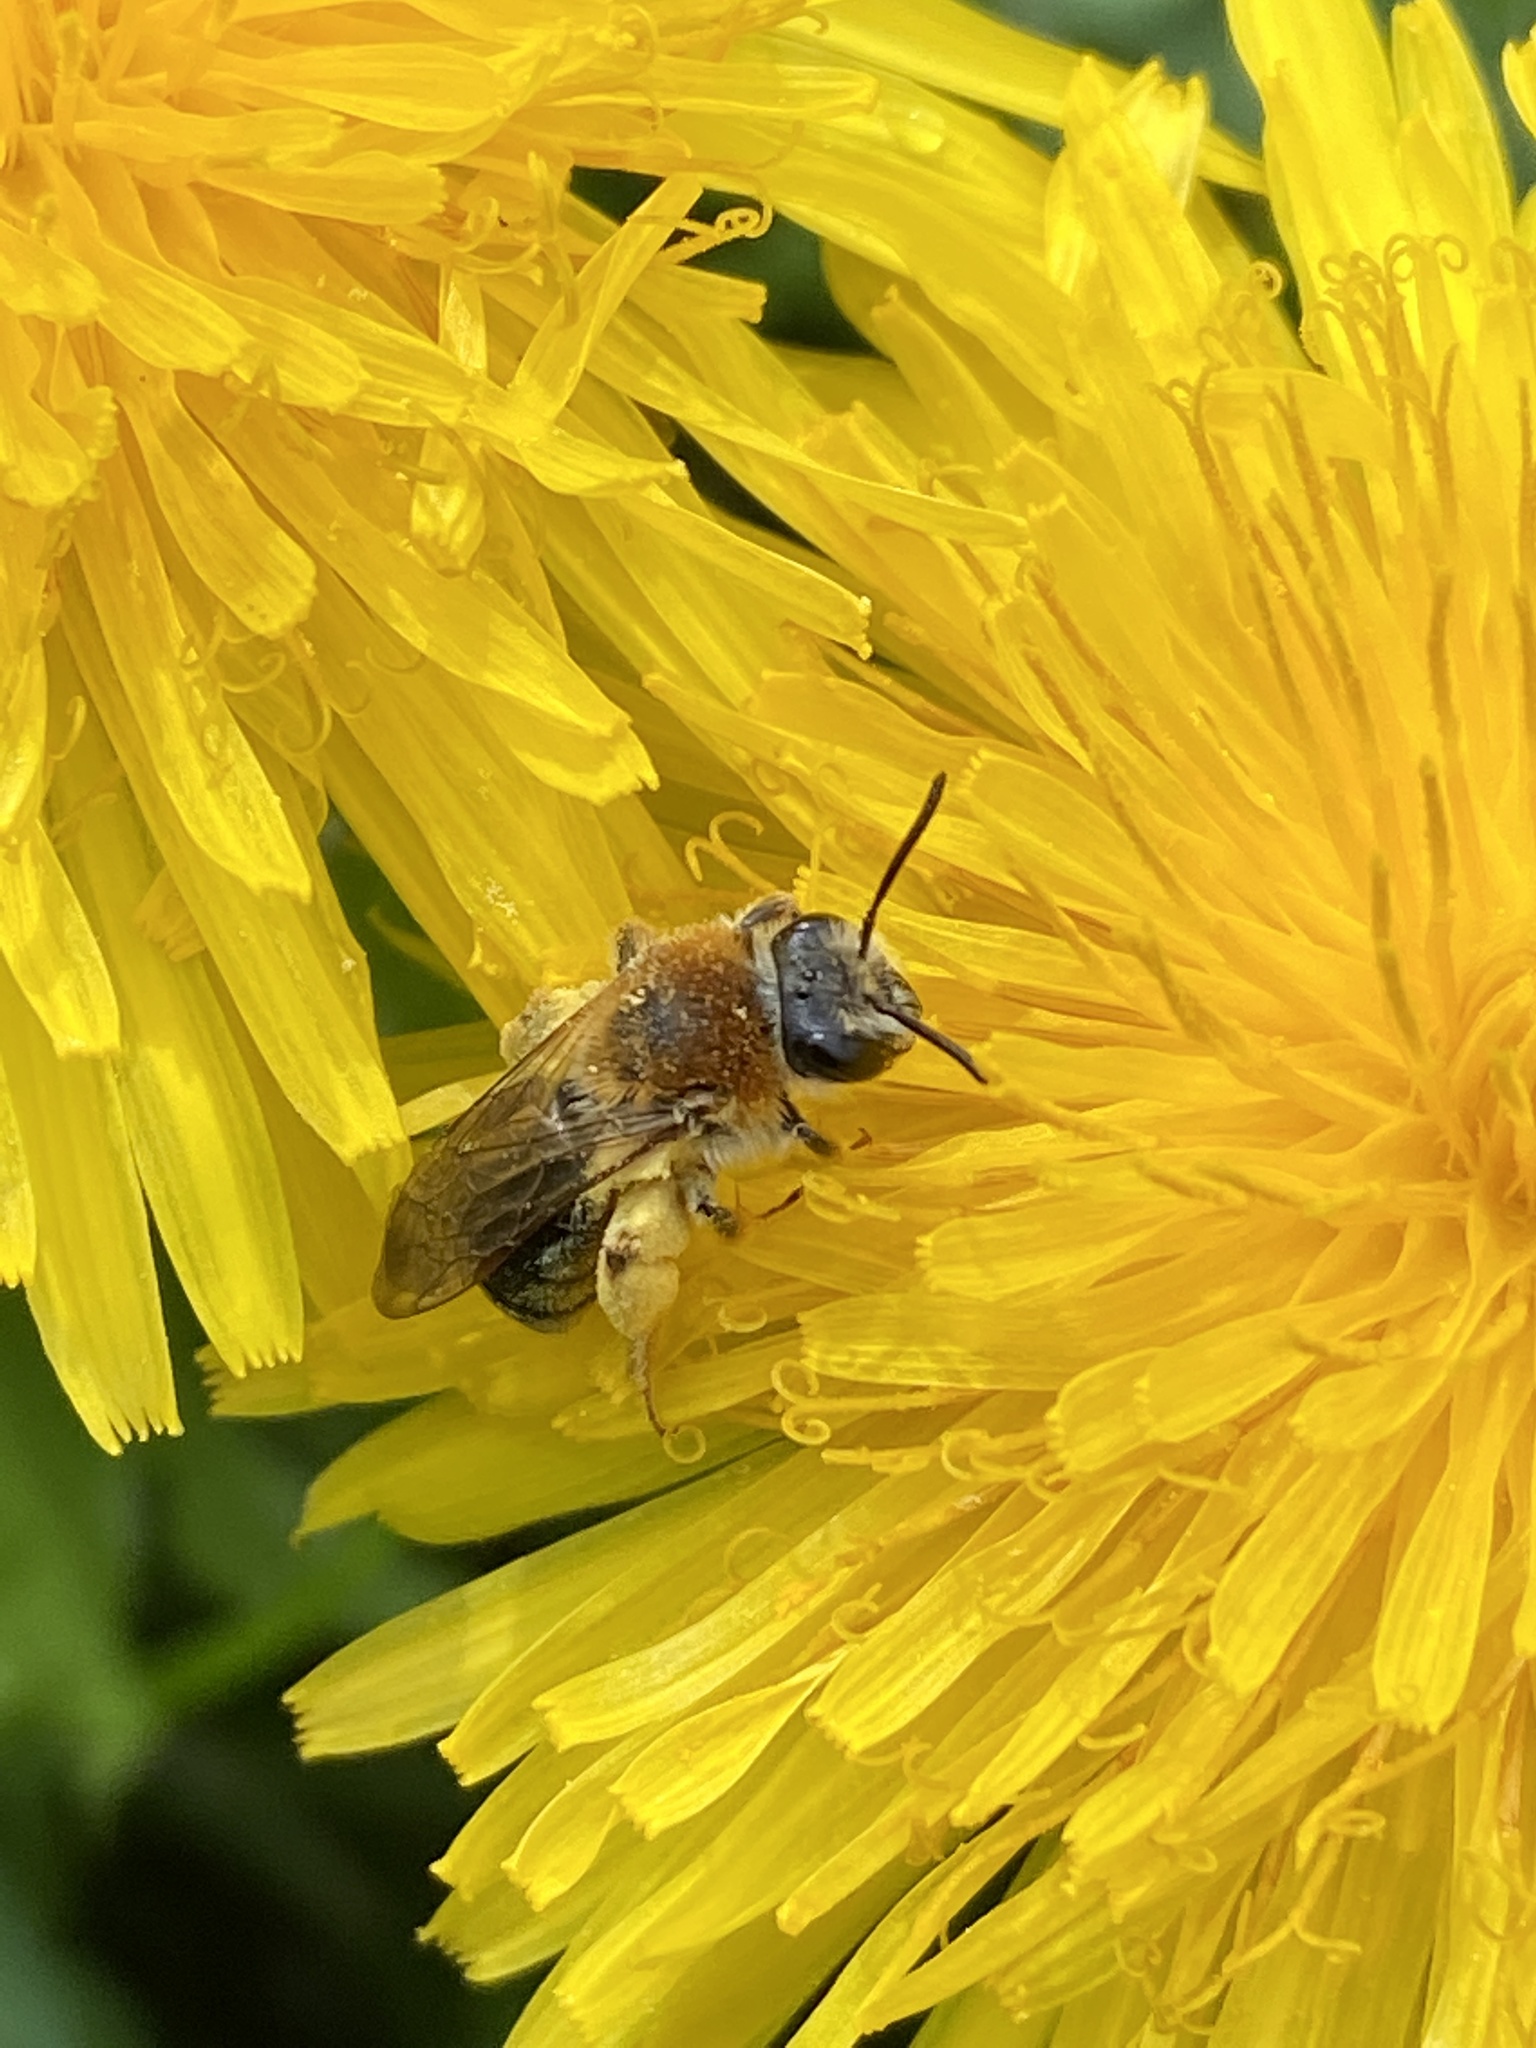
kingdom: Animalia
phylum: Arthropoda
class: Insecta
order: Hymenoptera
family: Andrenidae
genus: Andrena
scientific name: Andrena haemorrhoa
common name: Early mining bee
